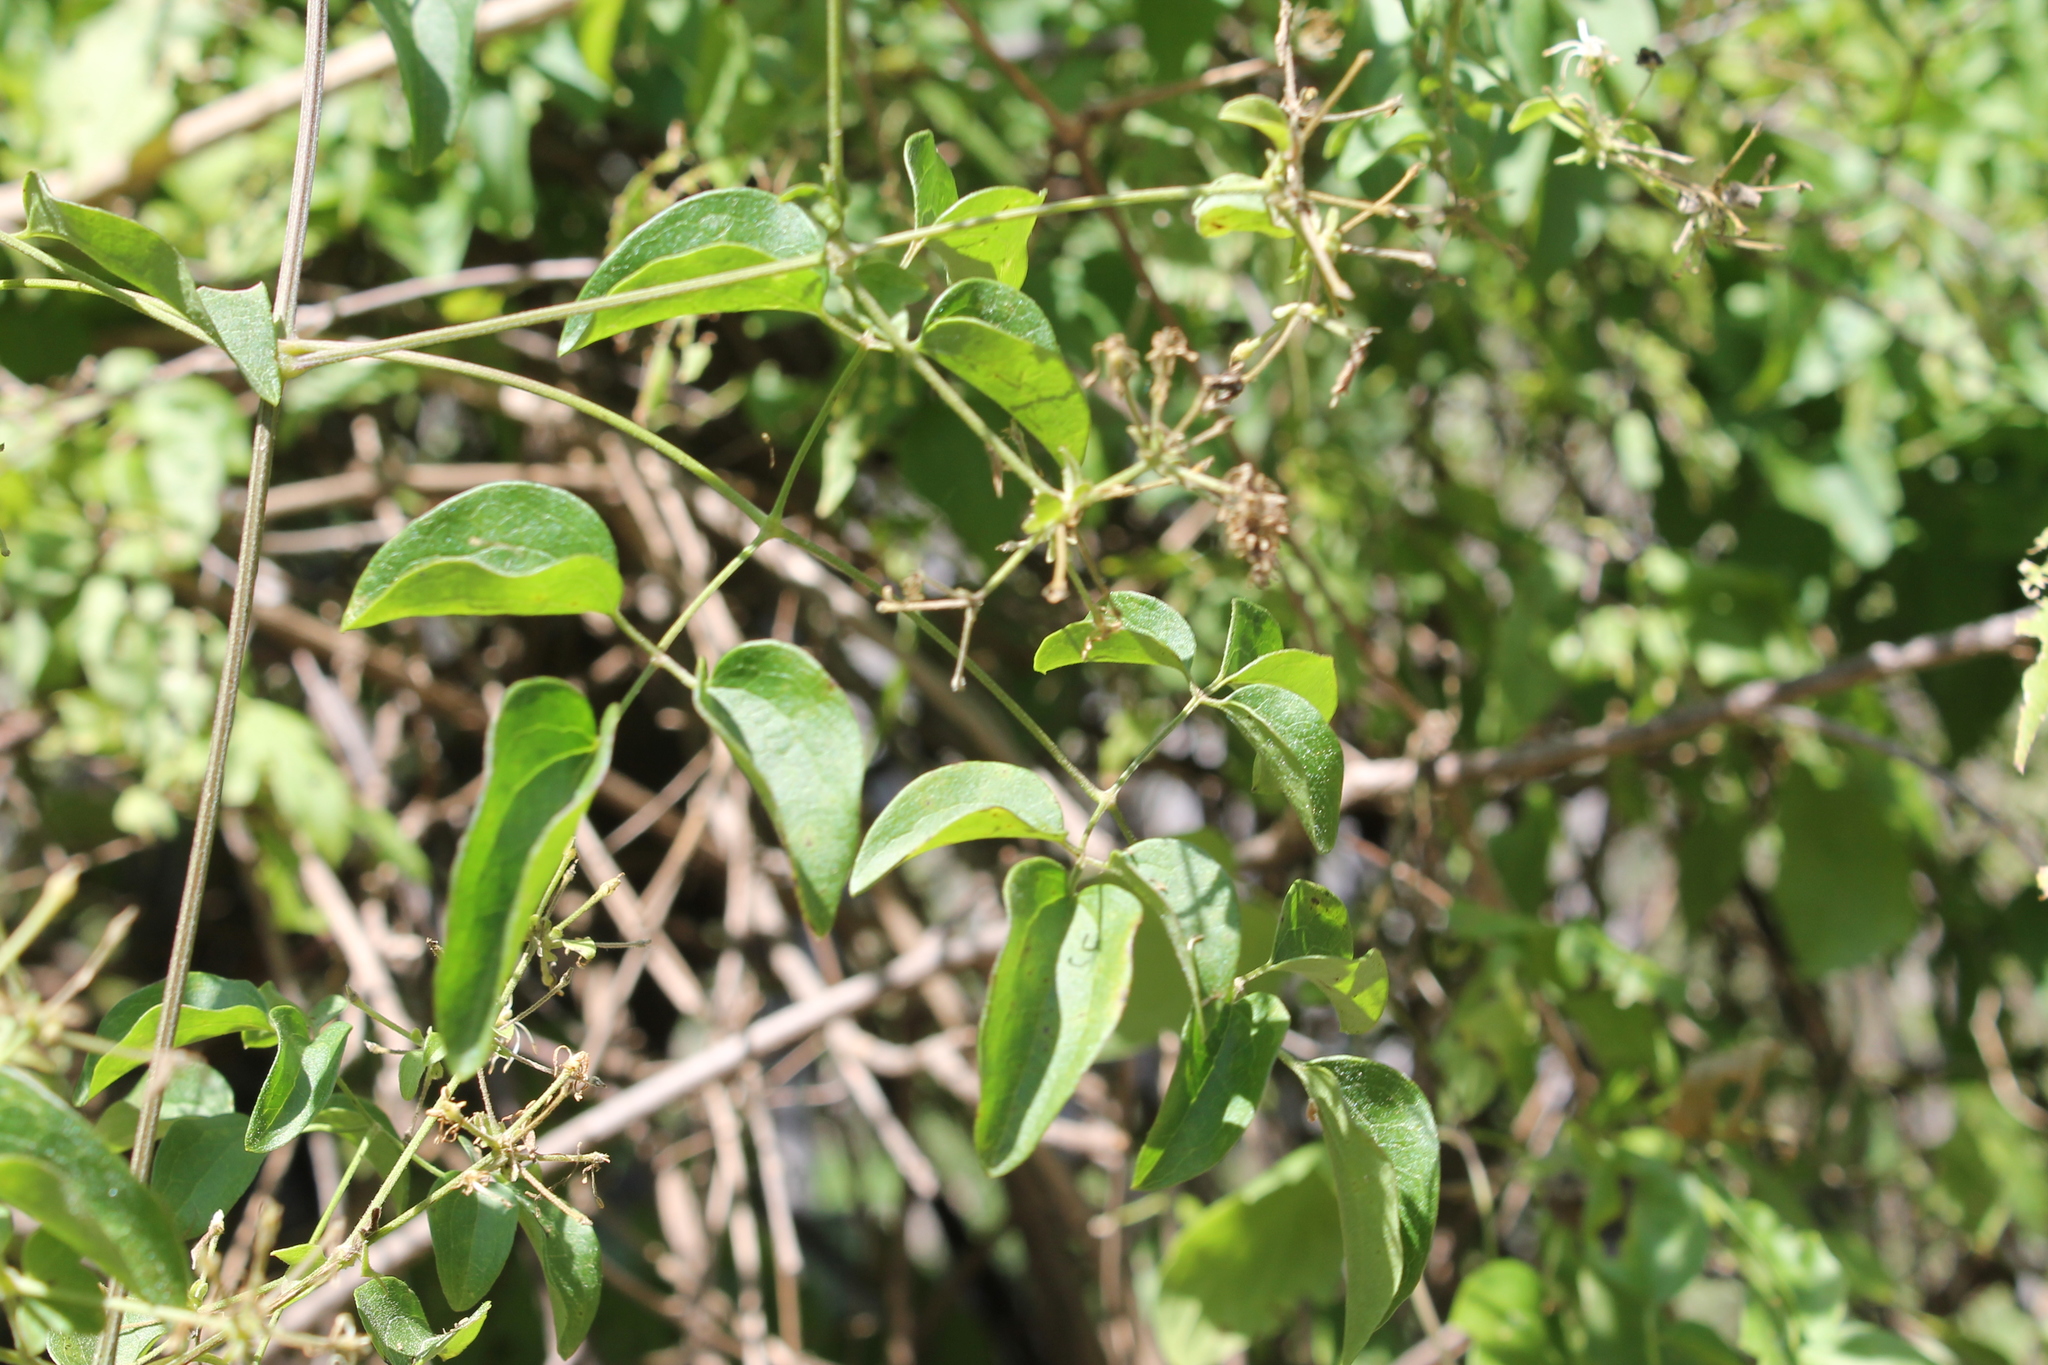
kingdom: Plantae
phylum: Tracheophyta
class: Magnoliopsida
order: Ranunculales
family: Ranunculaceae
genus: Clematis
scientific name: Clematis dioica
